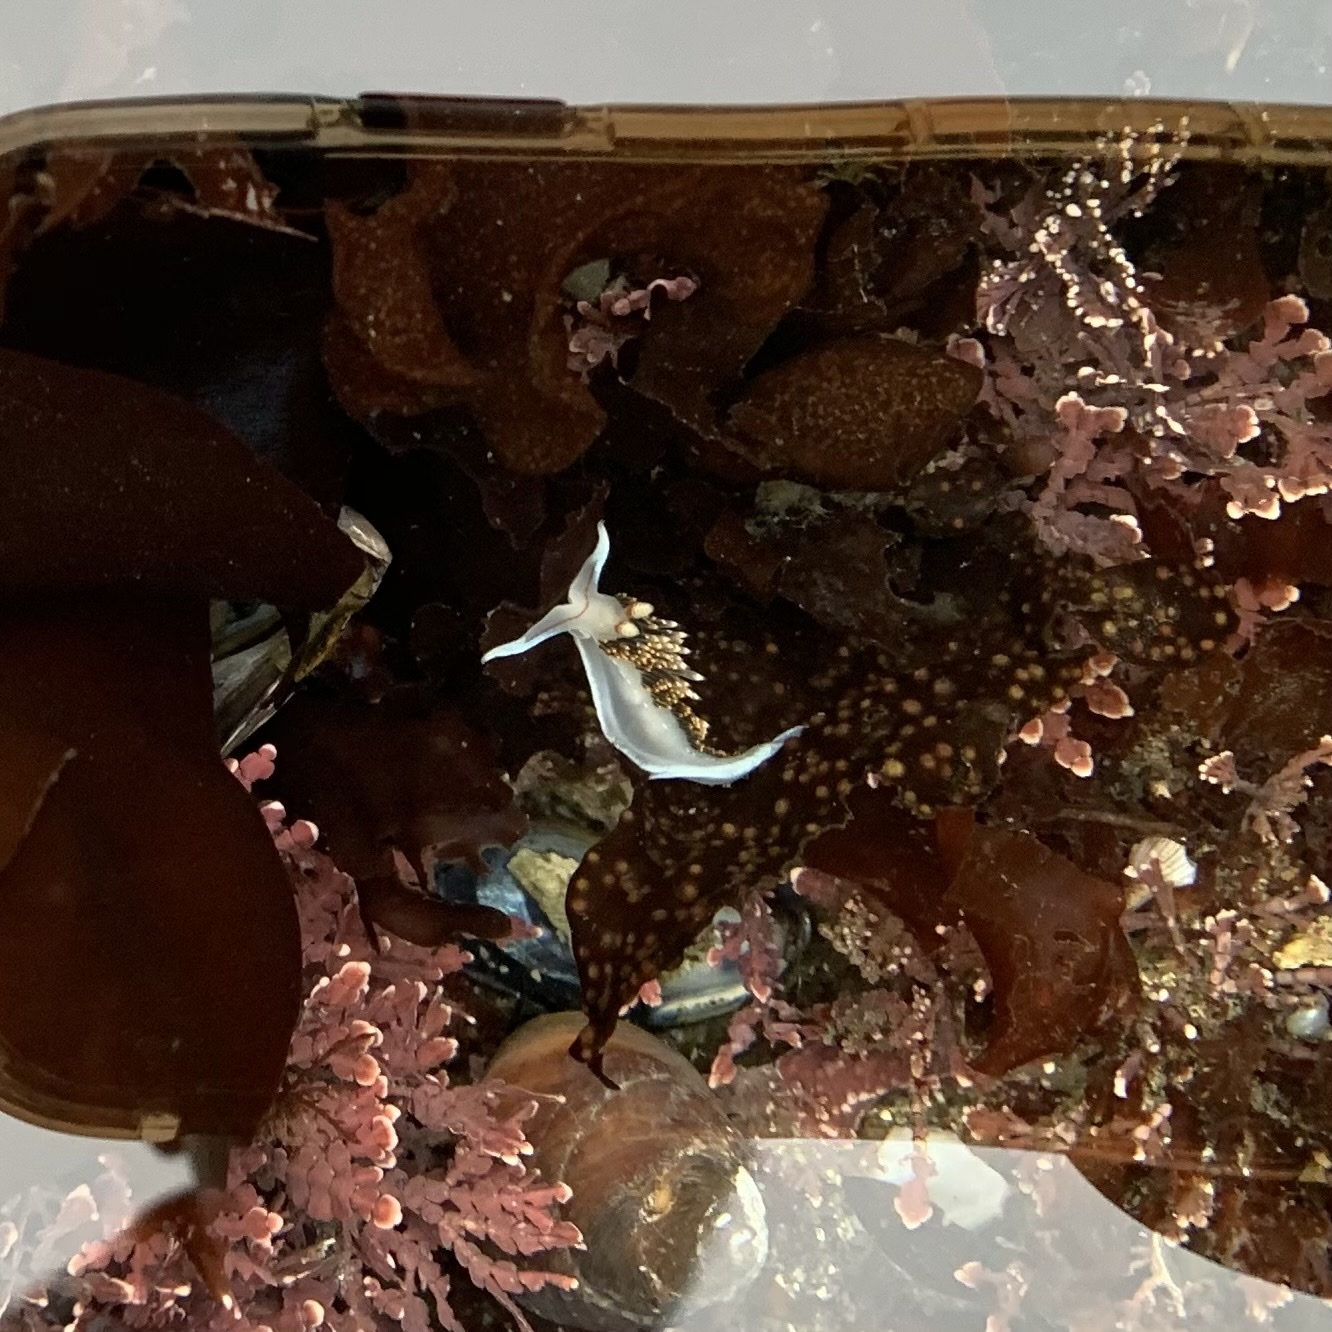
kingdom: Animalia
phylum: Mollusca
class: Gastropoda
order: Nudibranchia
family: Facelinidae
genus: Phidiana
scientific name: Phidiana hiltoni
